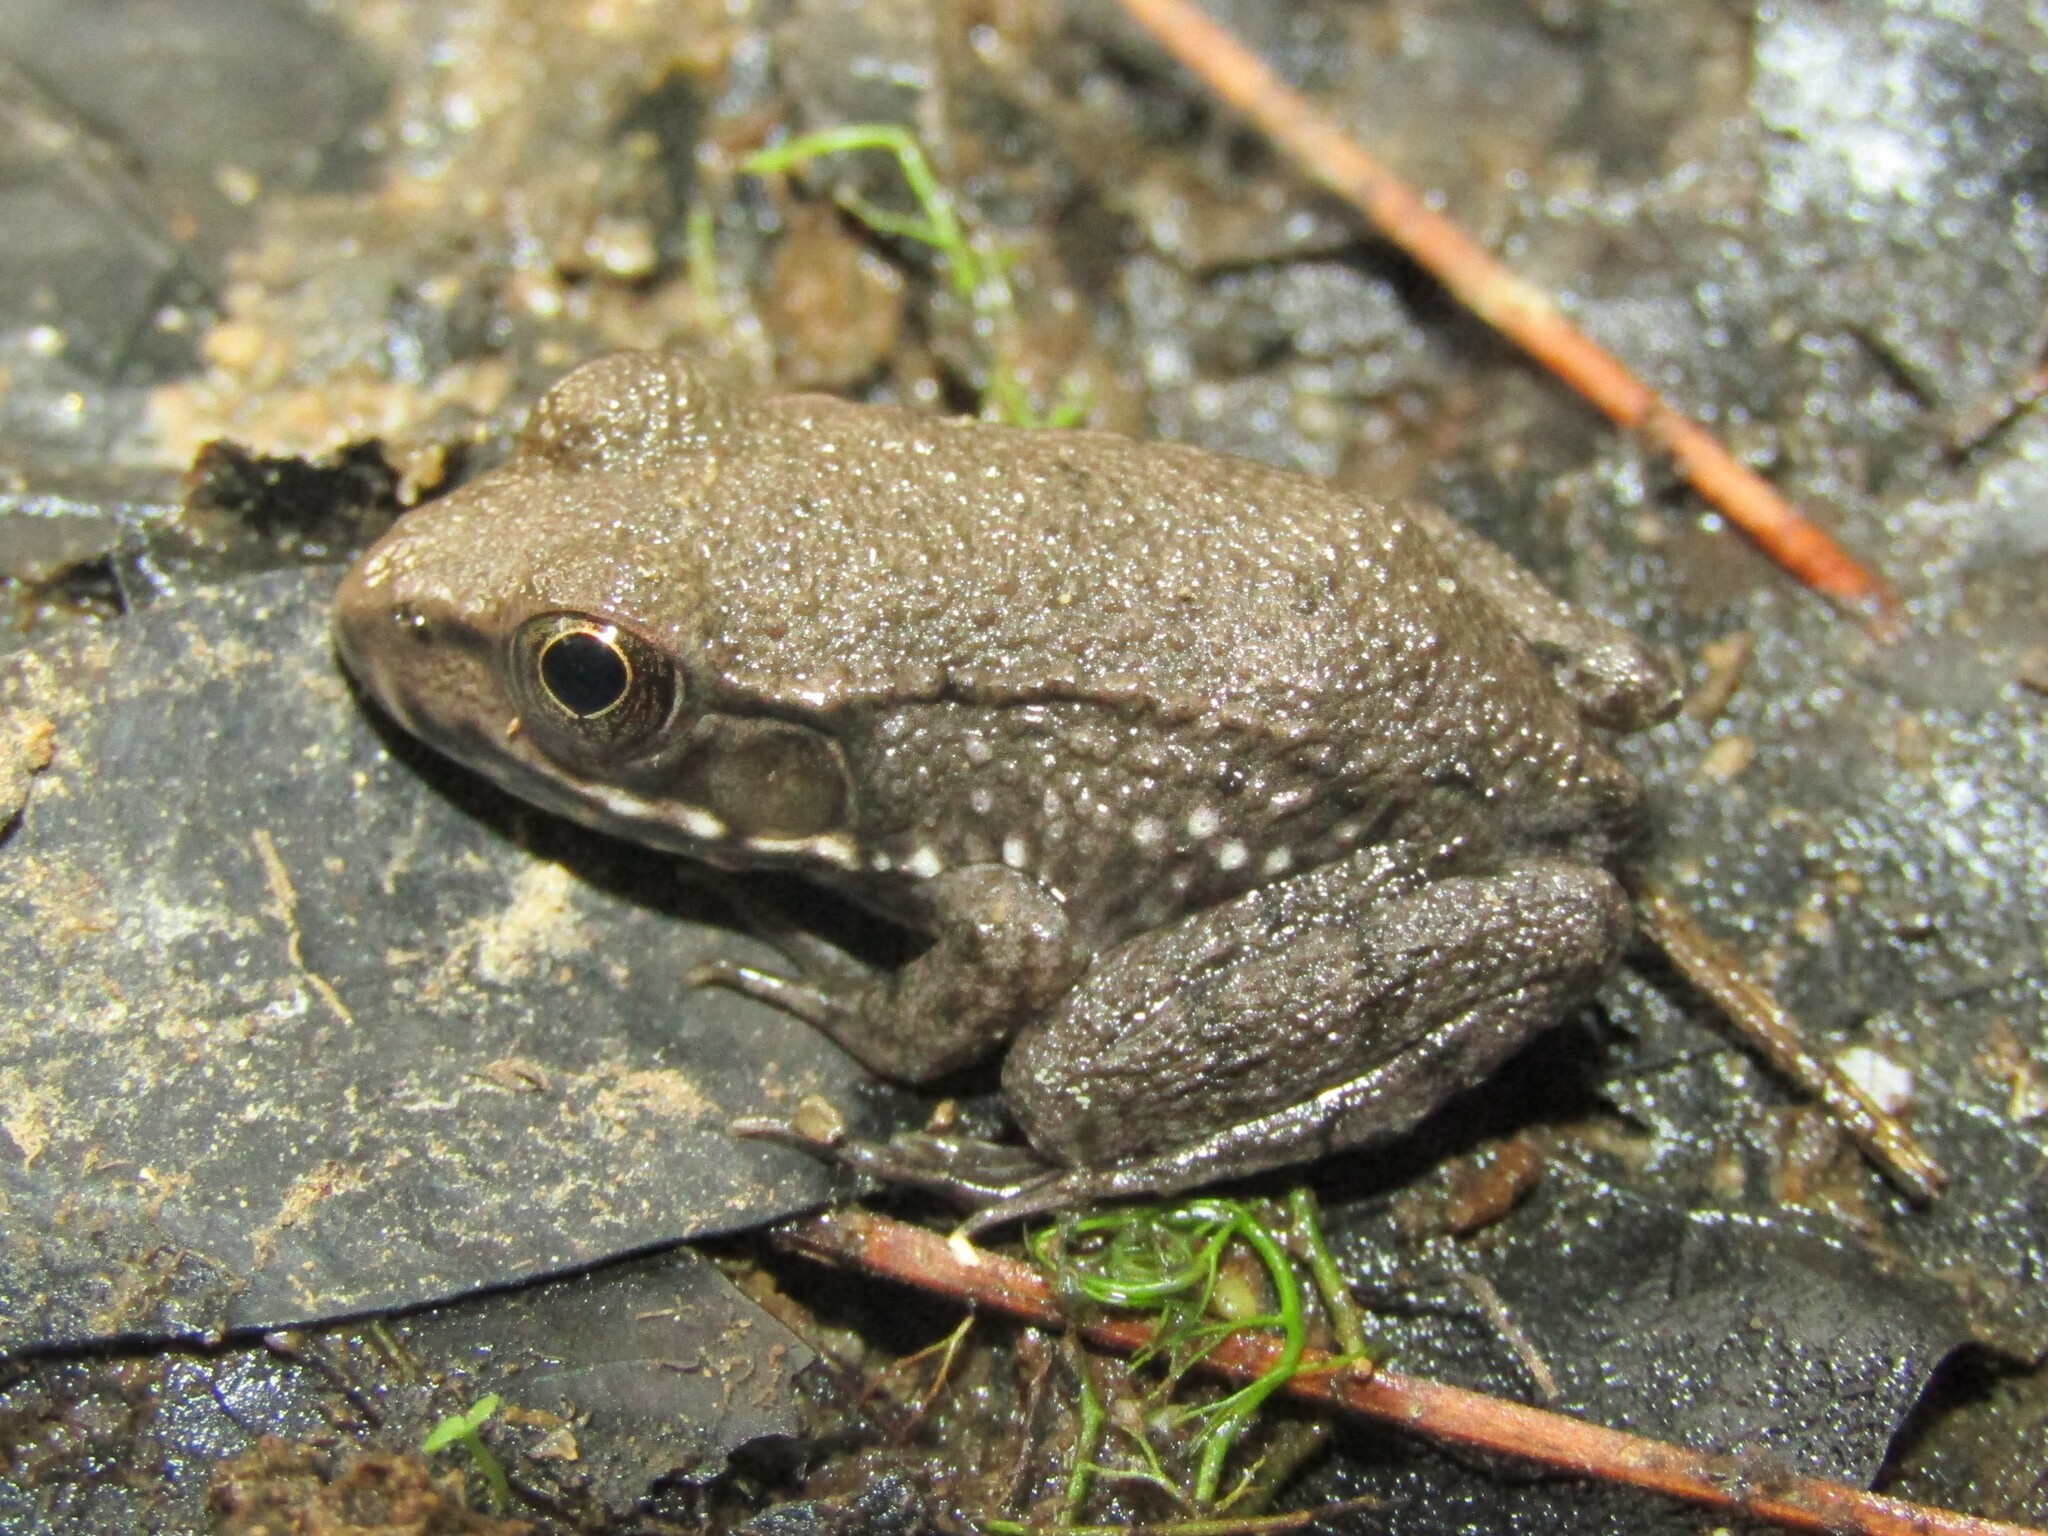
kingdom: Animalia
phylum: Chordata
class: Amphibia
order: Anura
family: Ranidae
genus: Lithobates
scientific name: Lithobates clamitans
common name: Green frog
